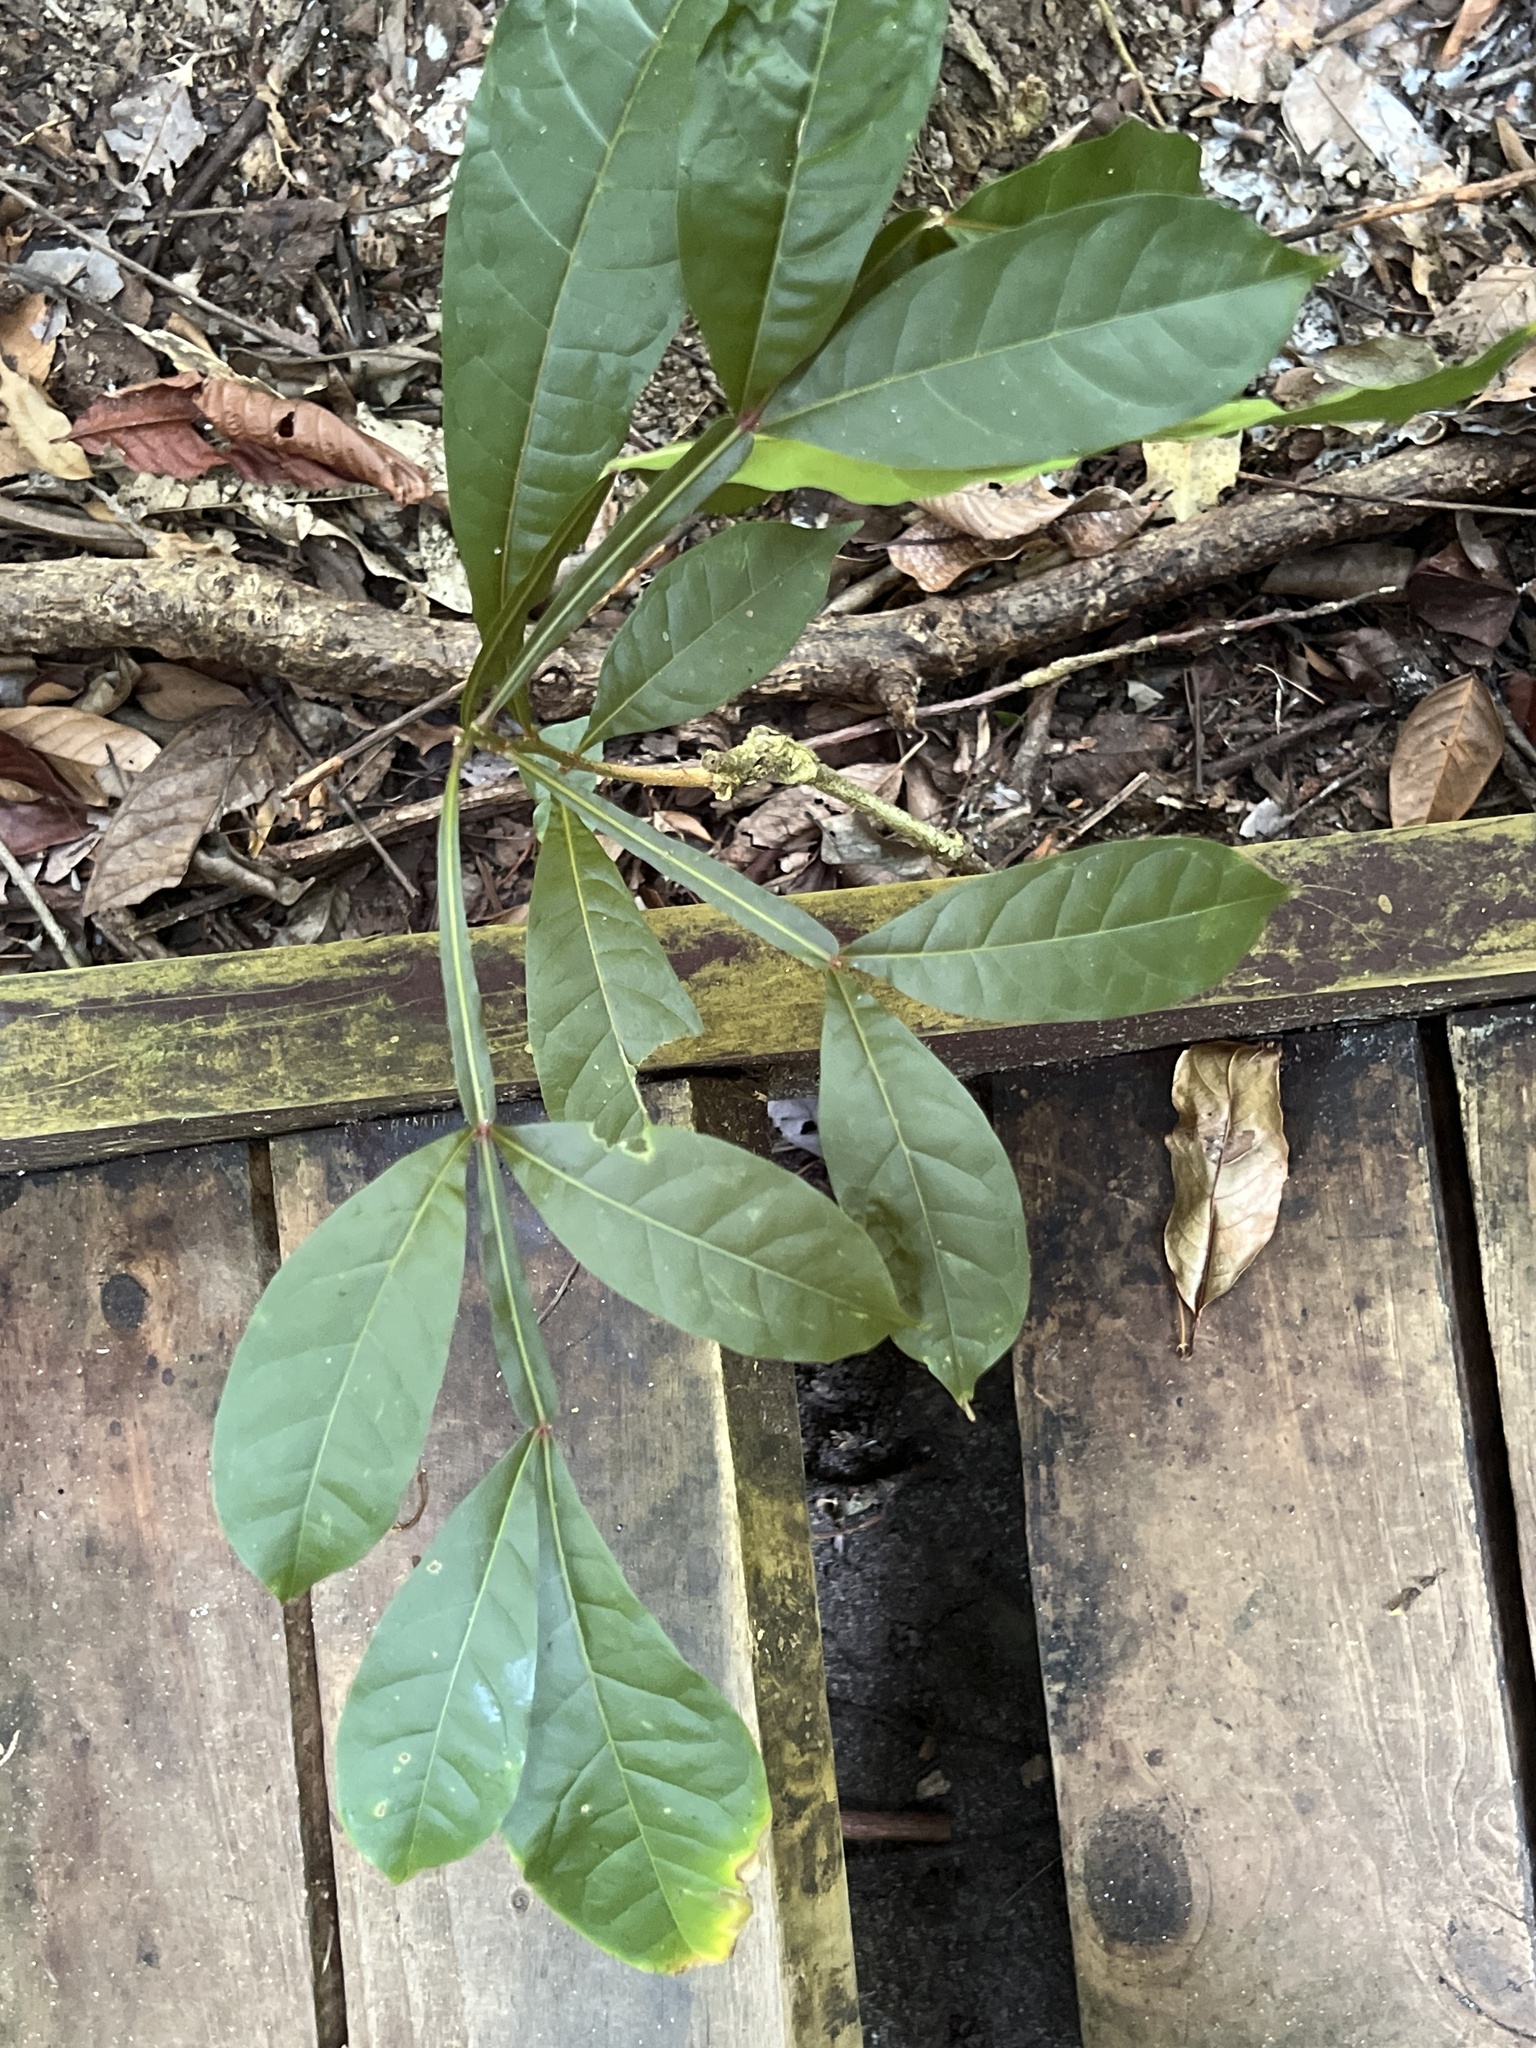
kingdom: Plantae
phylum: Tracheophyta
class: Magnoliopsida
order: Sapindales
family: Simaroubaceae
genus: Quassia
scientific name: Quassia amara
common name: Quassia
